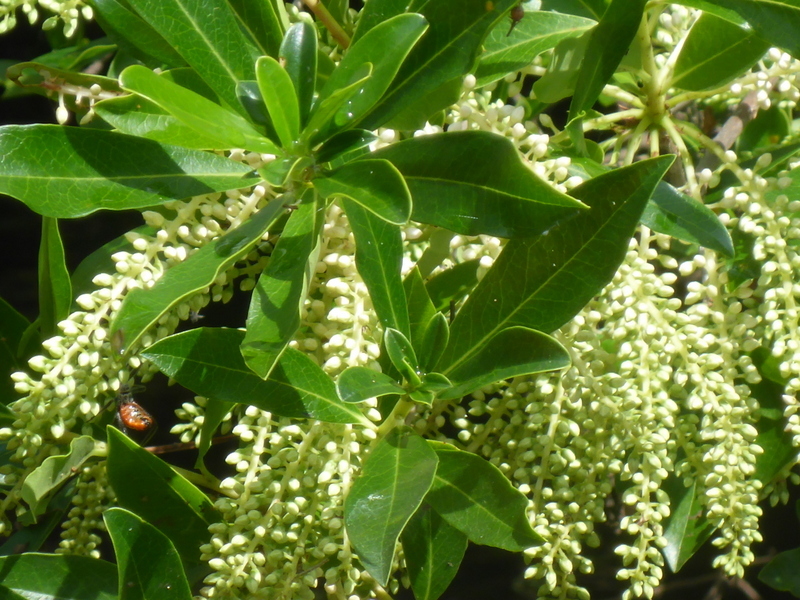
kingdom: Plantae
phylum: Tracheophyta
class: Magnoliopsida
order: Ericales
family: Cyrillaceae
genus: Cyrilla
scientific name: Cyrilla racemiflora
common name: Black titi
